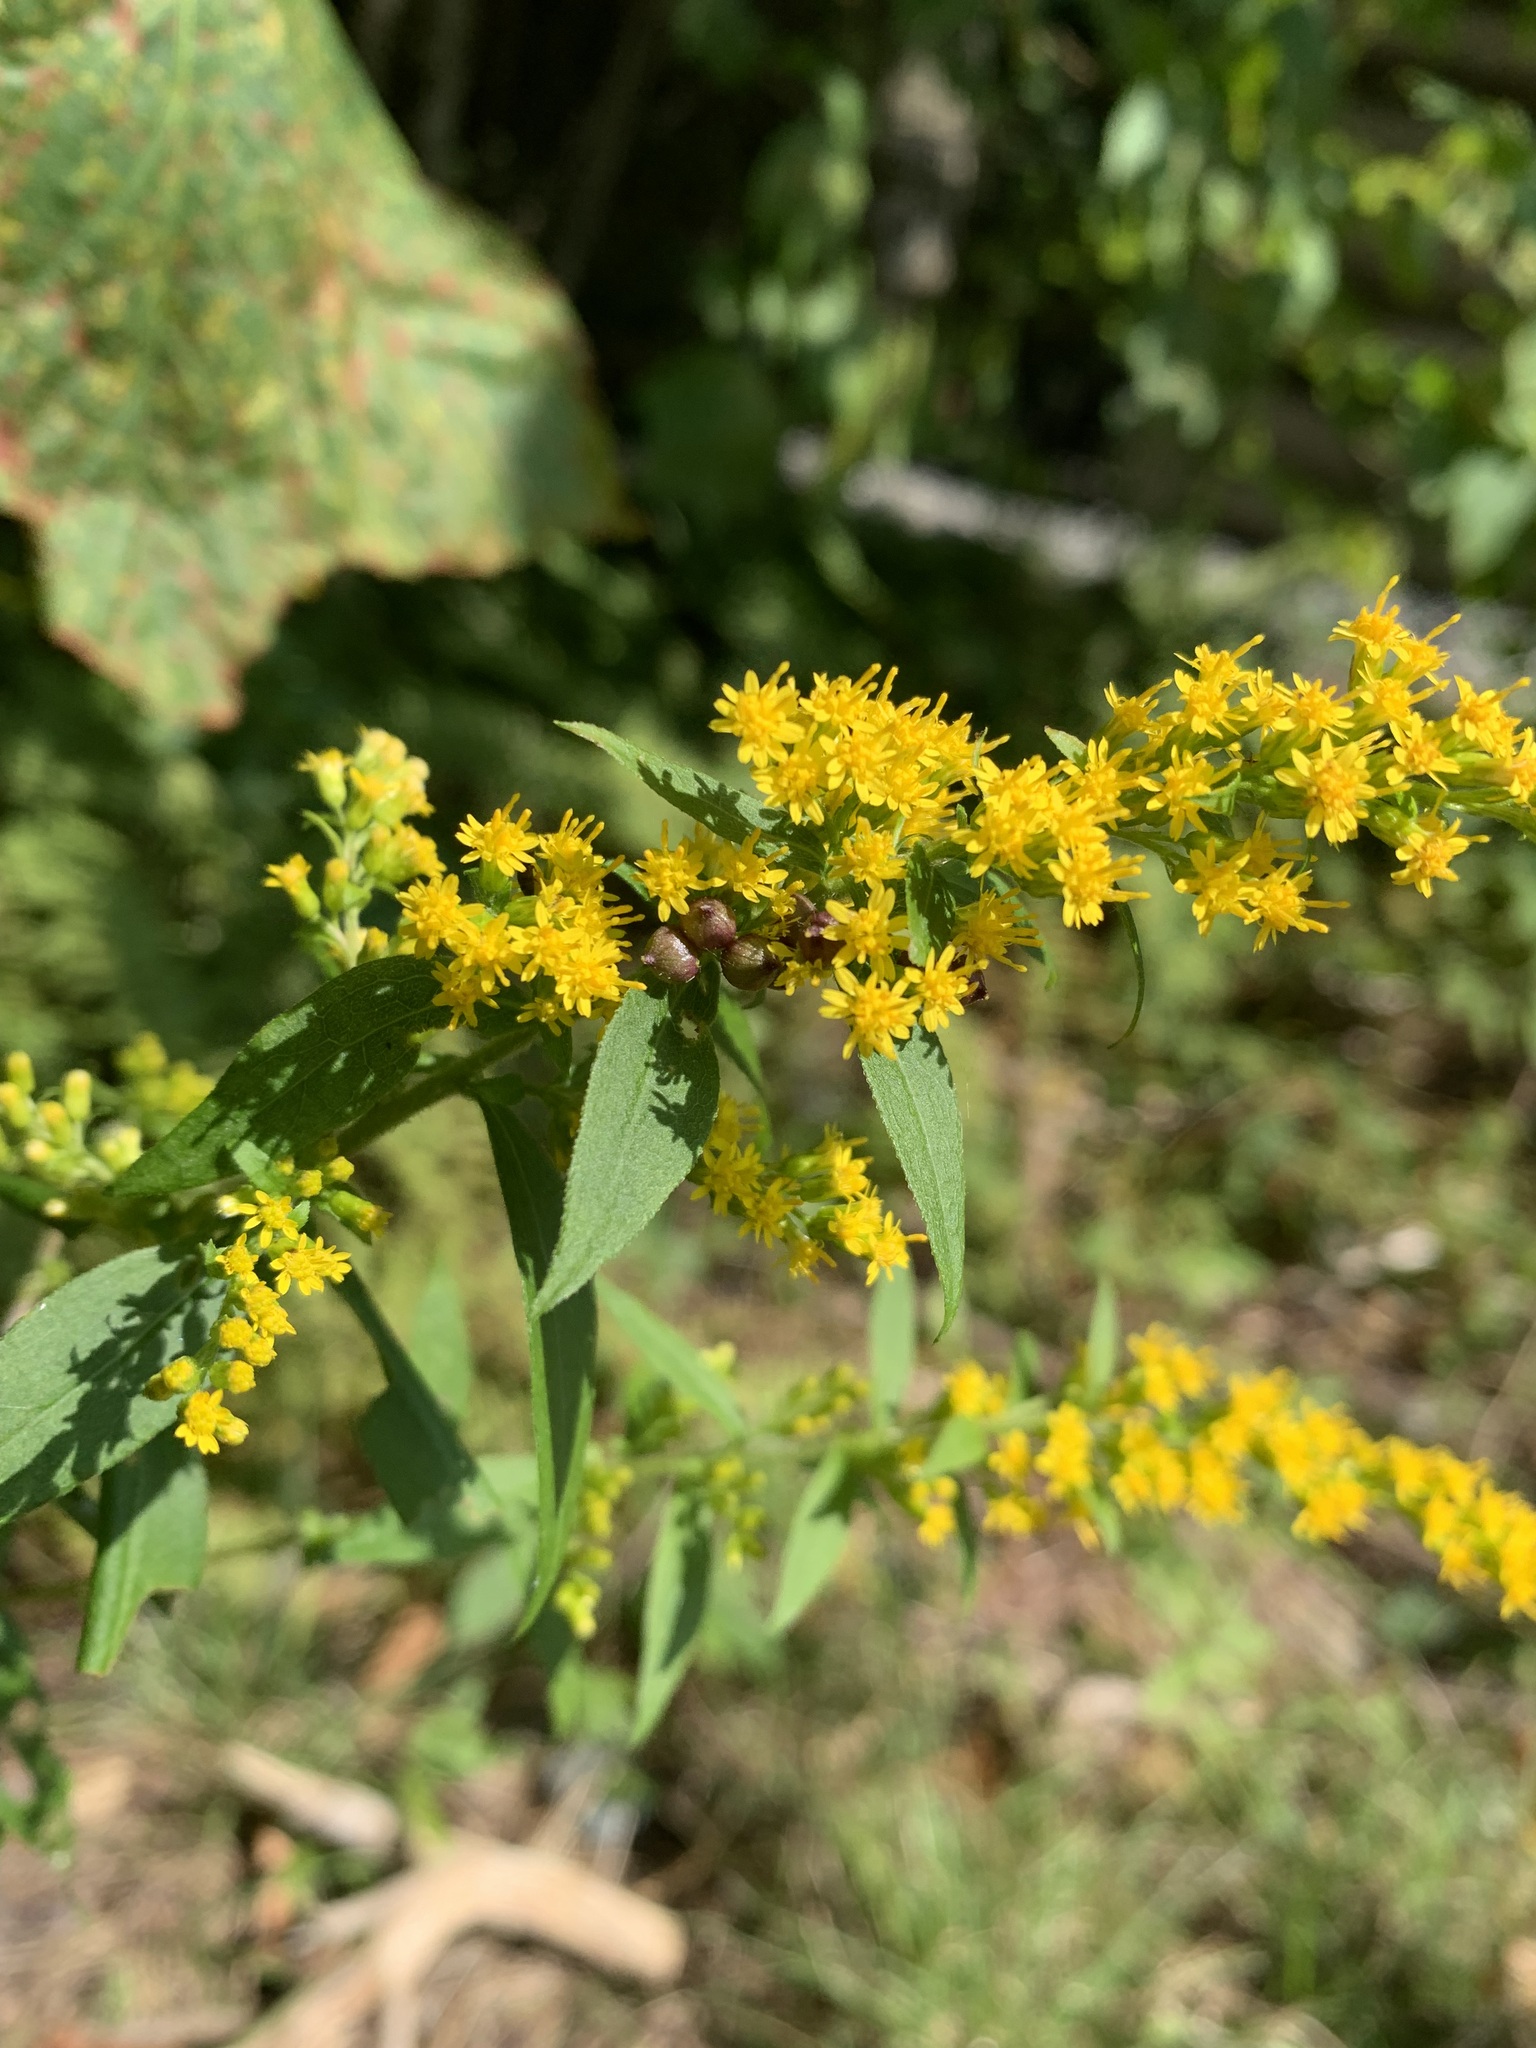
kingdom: Animalia
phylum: Arthropoda
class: Insecta
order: Diptera
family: Cecidomyiidae
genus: Schizomyia
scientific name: Schizomyia racemicola
